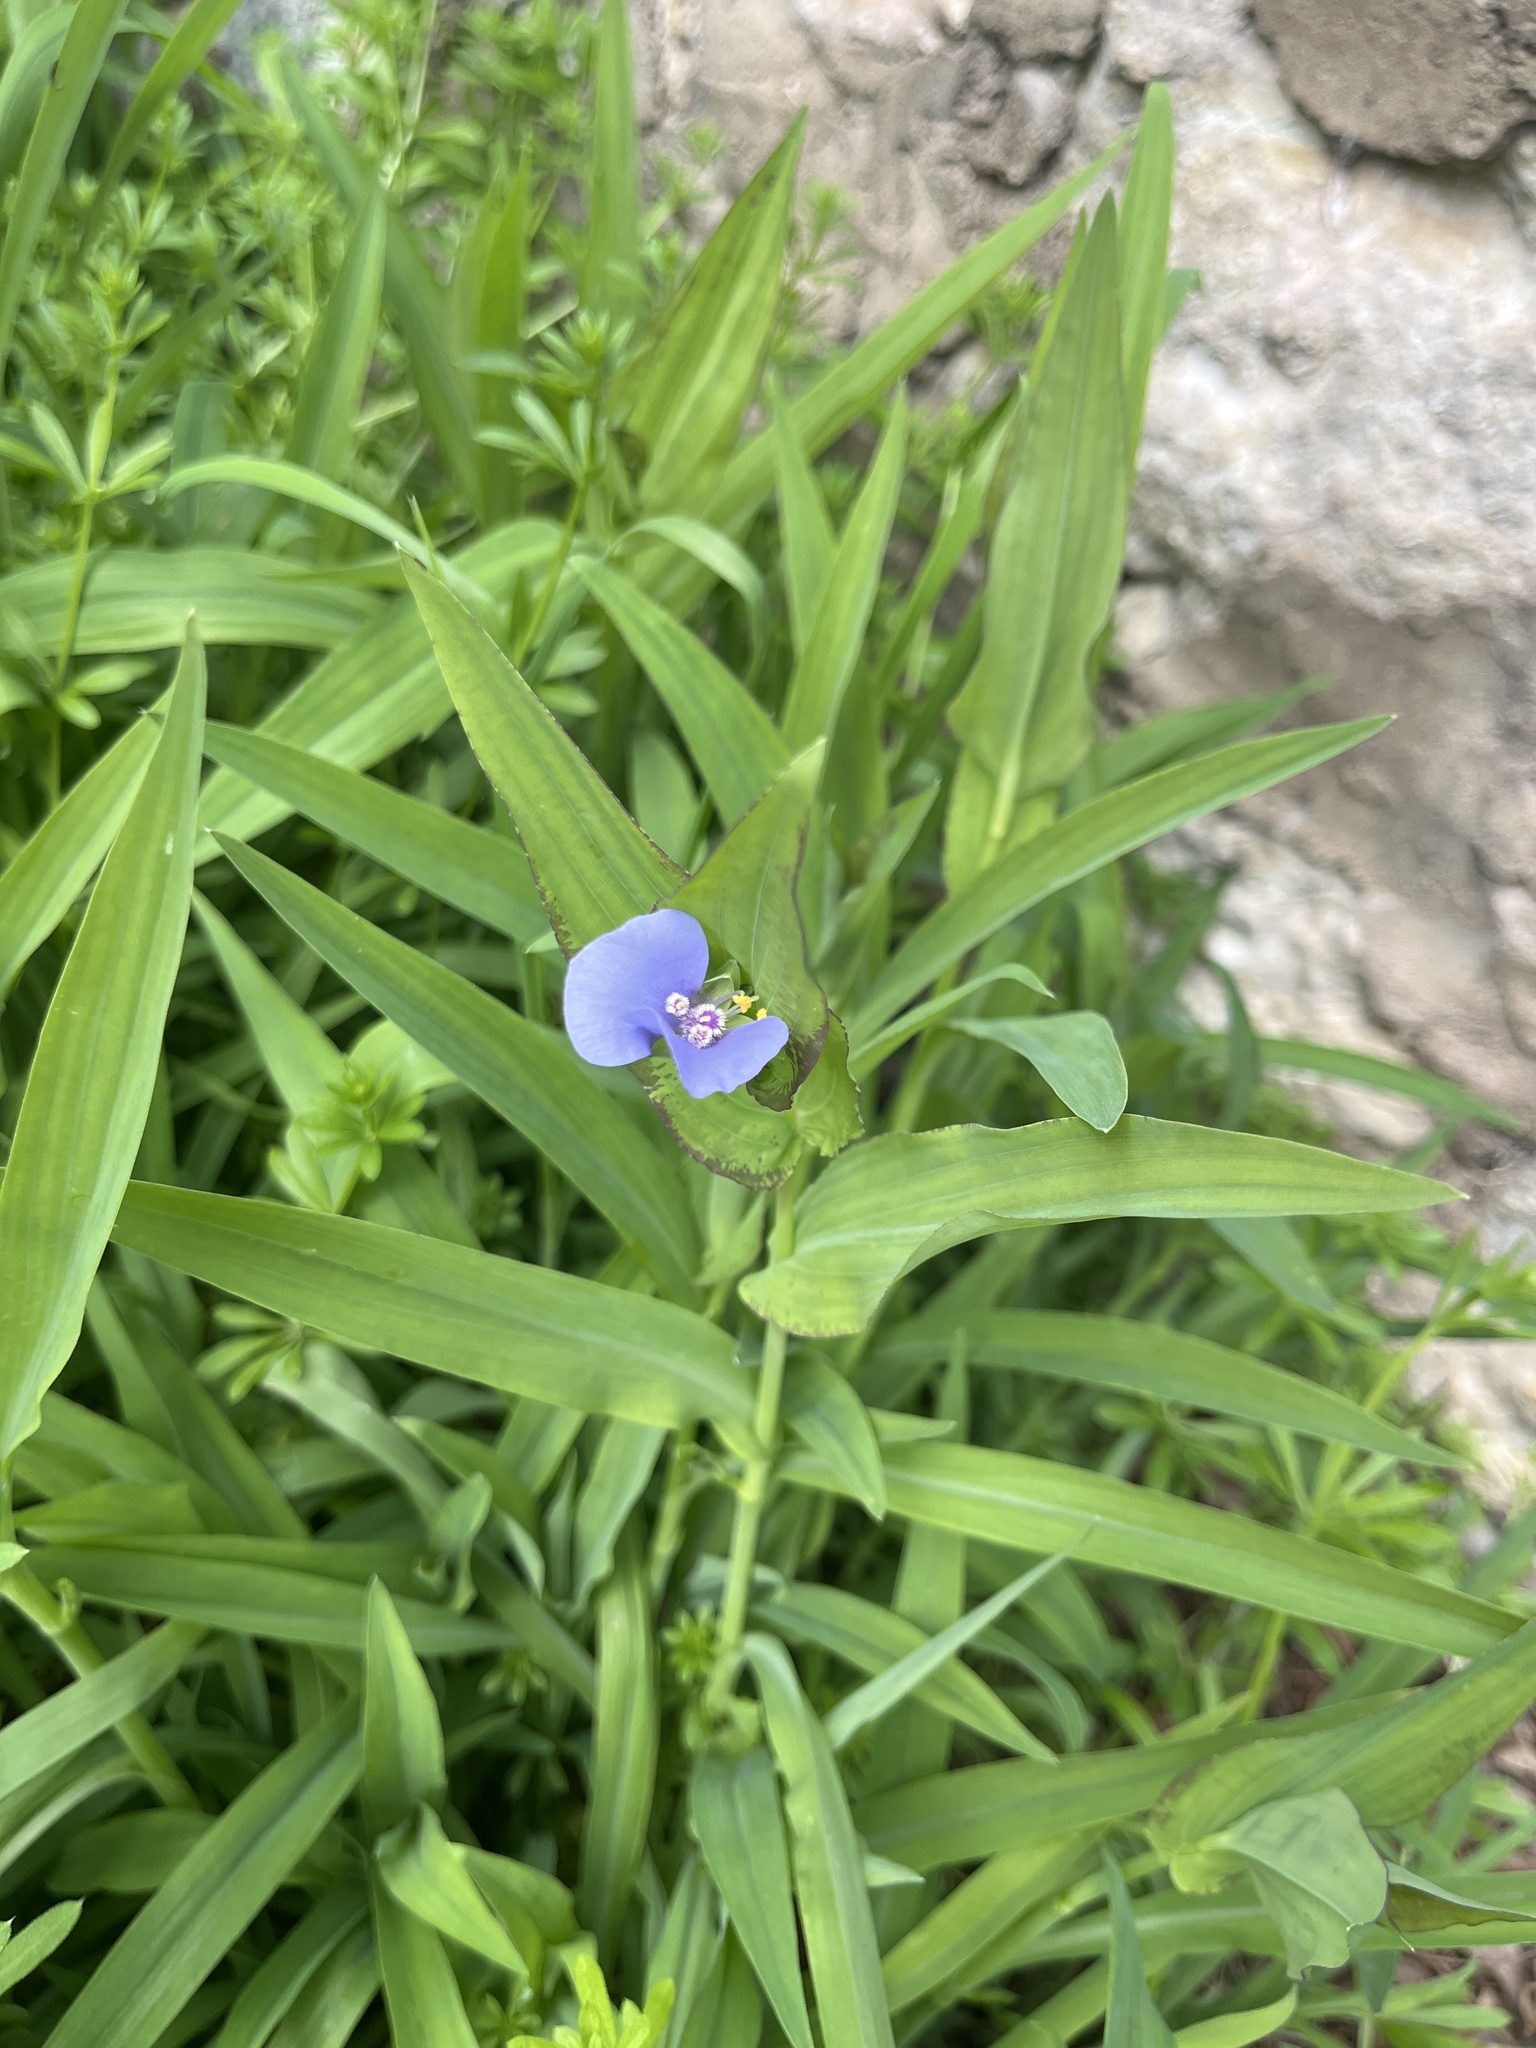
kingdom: Plantae
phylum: Tracheophyta
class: Liliopsida
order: Commelinales
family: Commelinaceae
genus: Tinantia
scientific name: Tinantia anomala
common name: False dayflower
